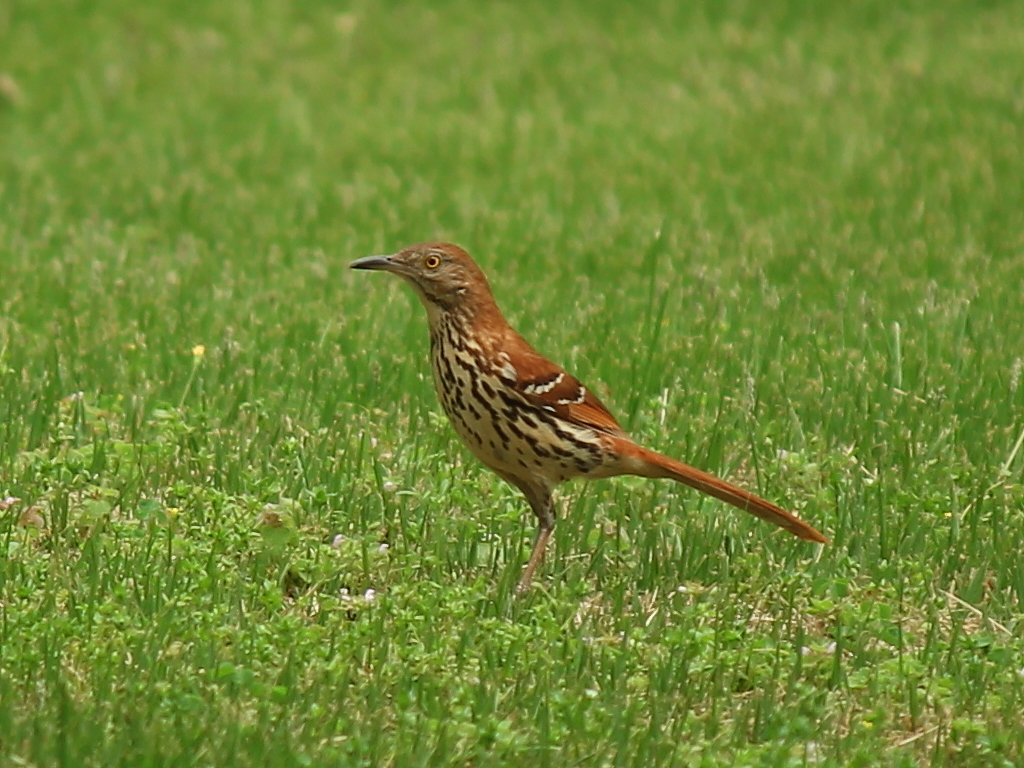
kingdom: Animalia
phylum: Chordata
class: Aves
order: Passeriformes
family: Mimidae
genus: Toxostoma
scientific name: Toxostoma rufum
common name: Brown thrasher
